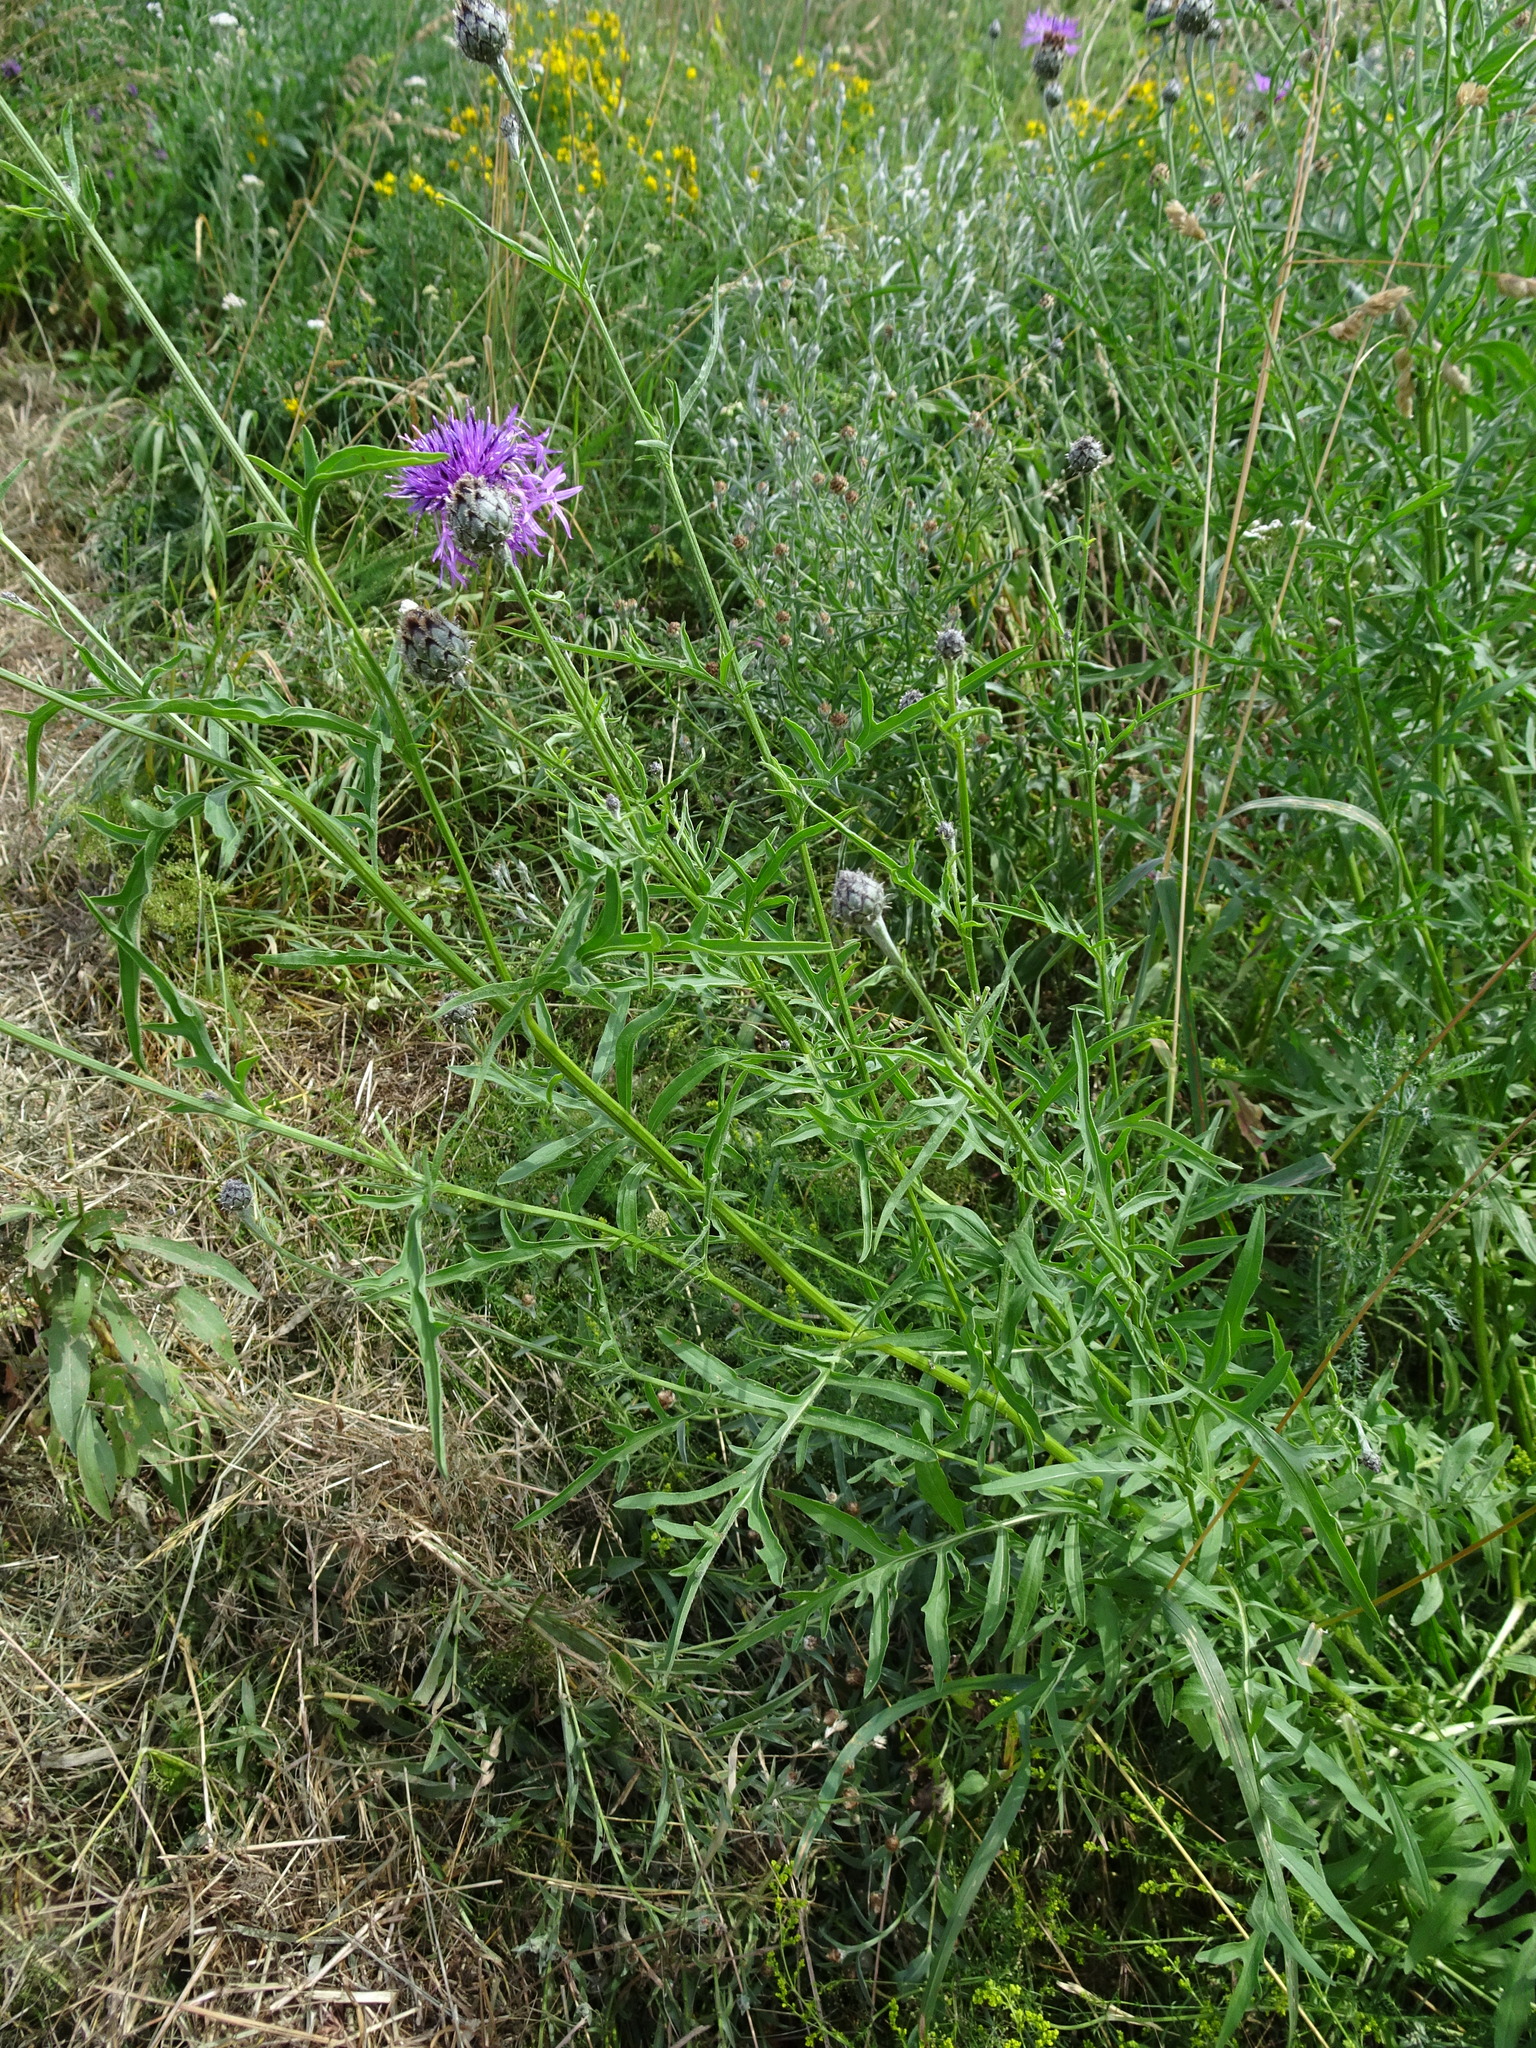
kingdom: Plantae
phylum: Tracheophyta
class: Magnoliopsida
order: Asterales
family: Asteraceae
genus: Centaurea
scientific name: Centaurea scabiosa
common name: Greater knapweed
